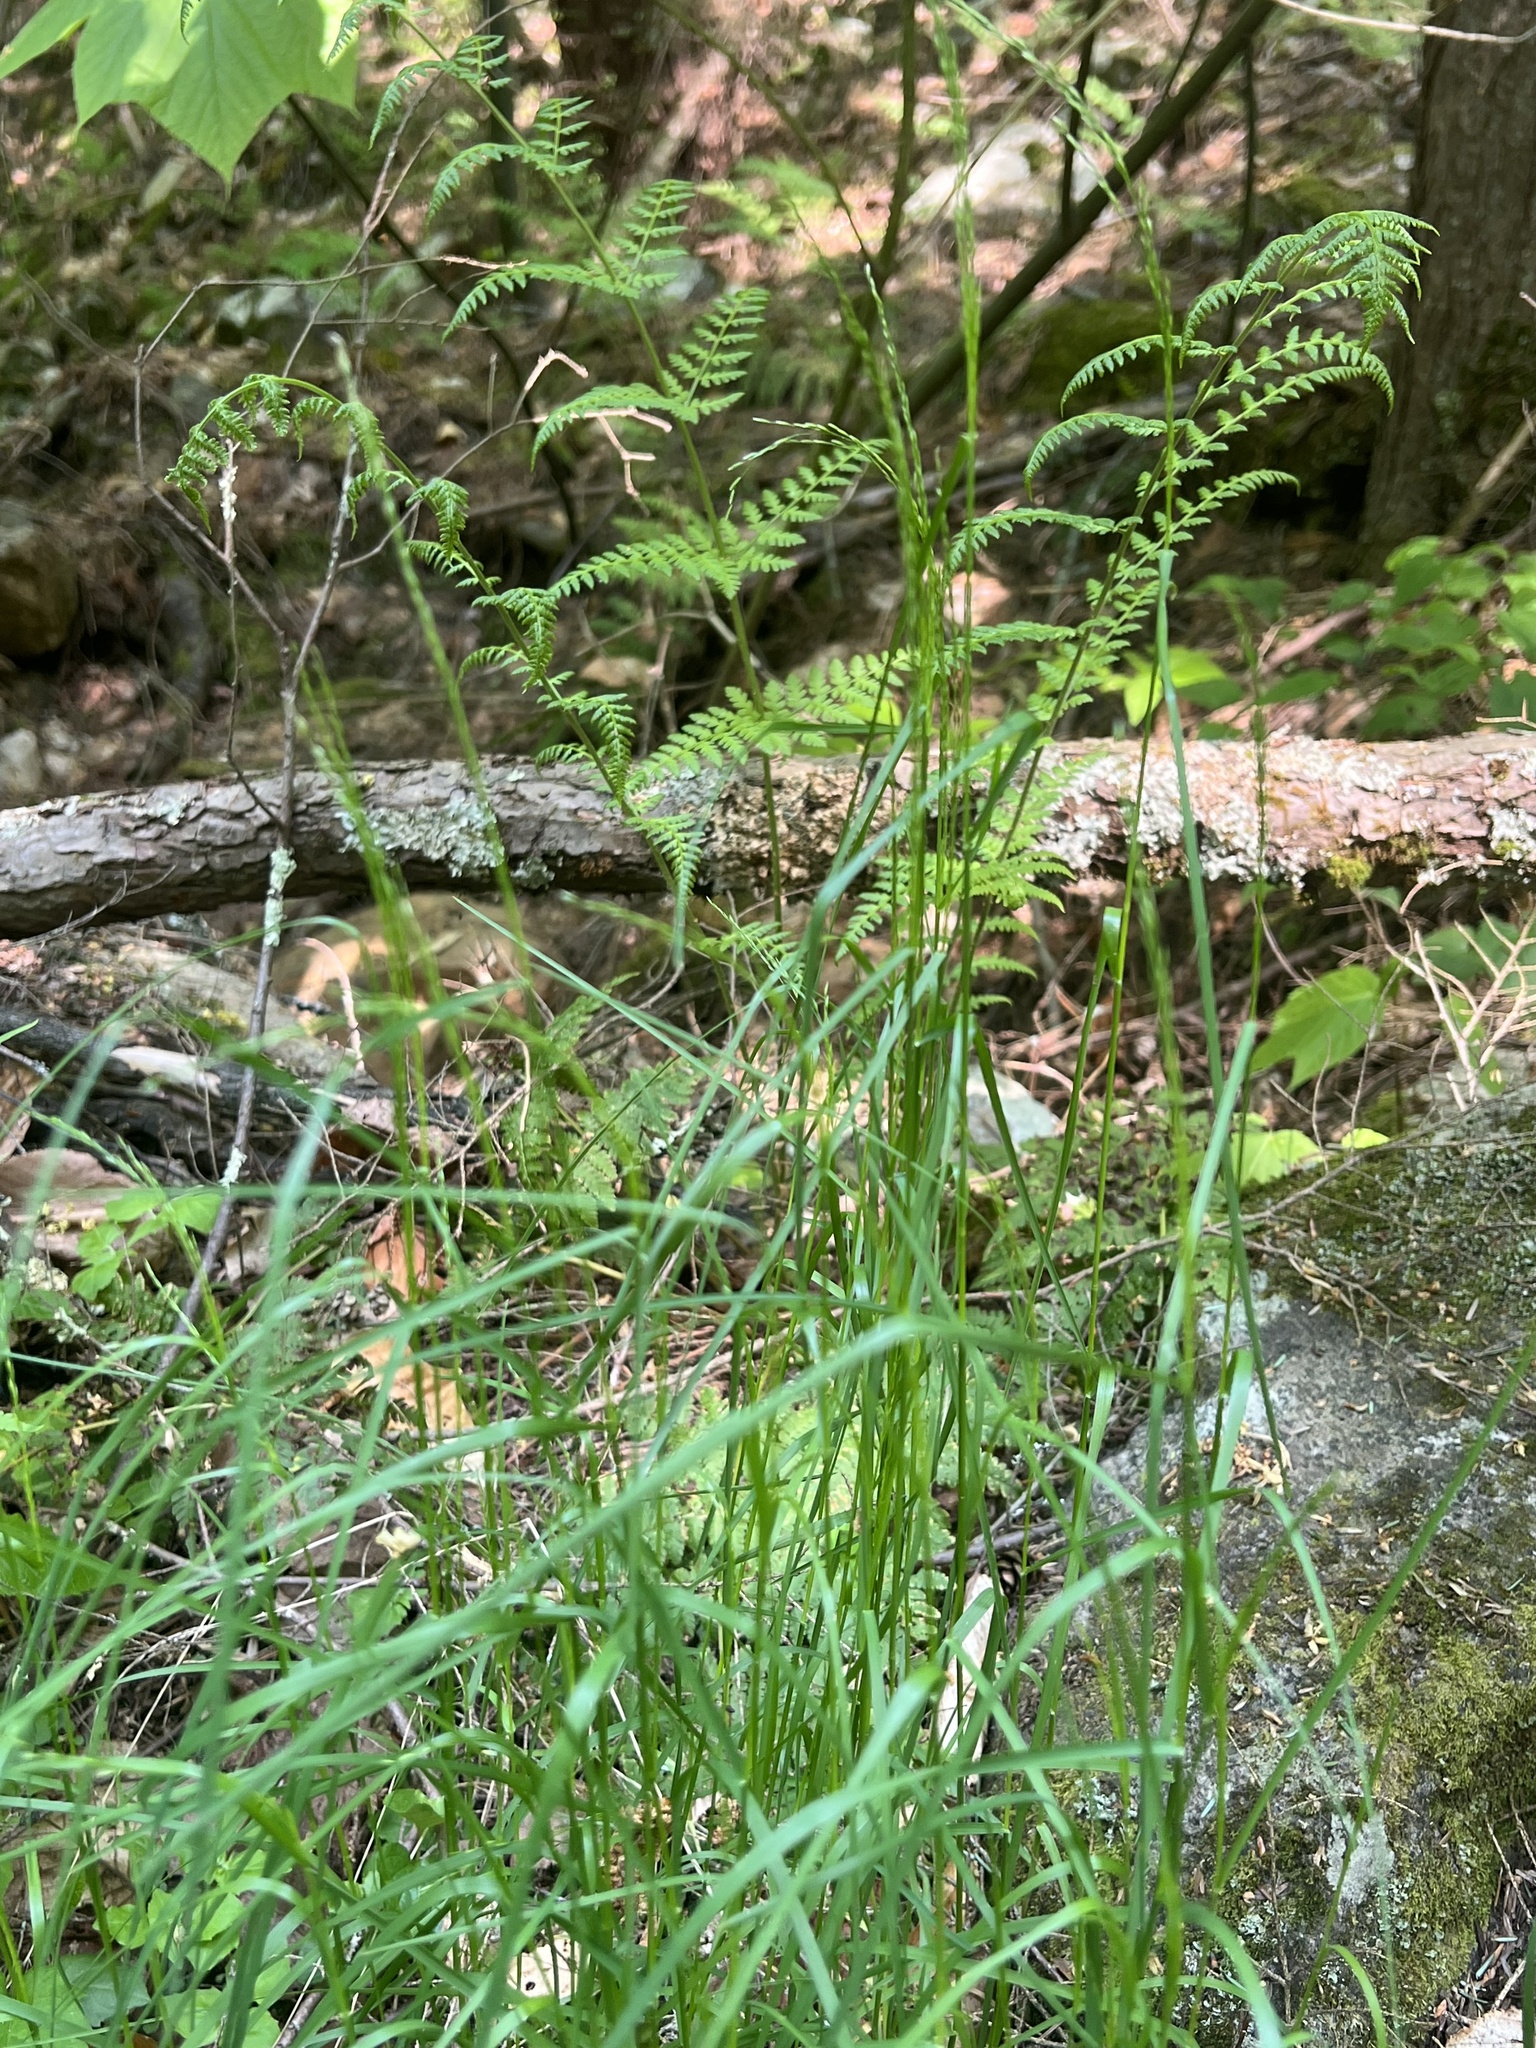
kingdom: Plantae
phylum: Tracheophyta
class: Liliopsida
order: Poales
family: Poaceae
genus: Glyceria
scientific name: Glyceria striata
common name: Fowl manna grass
